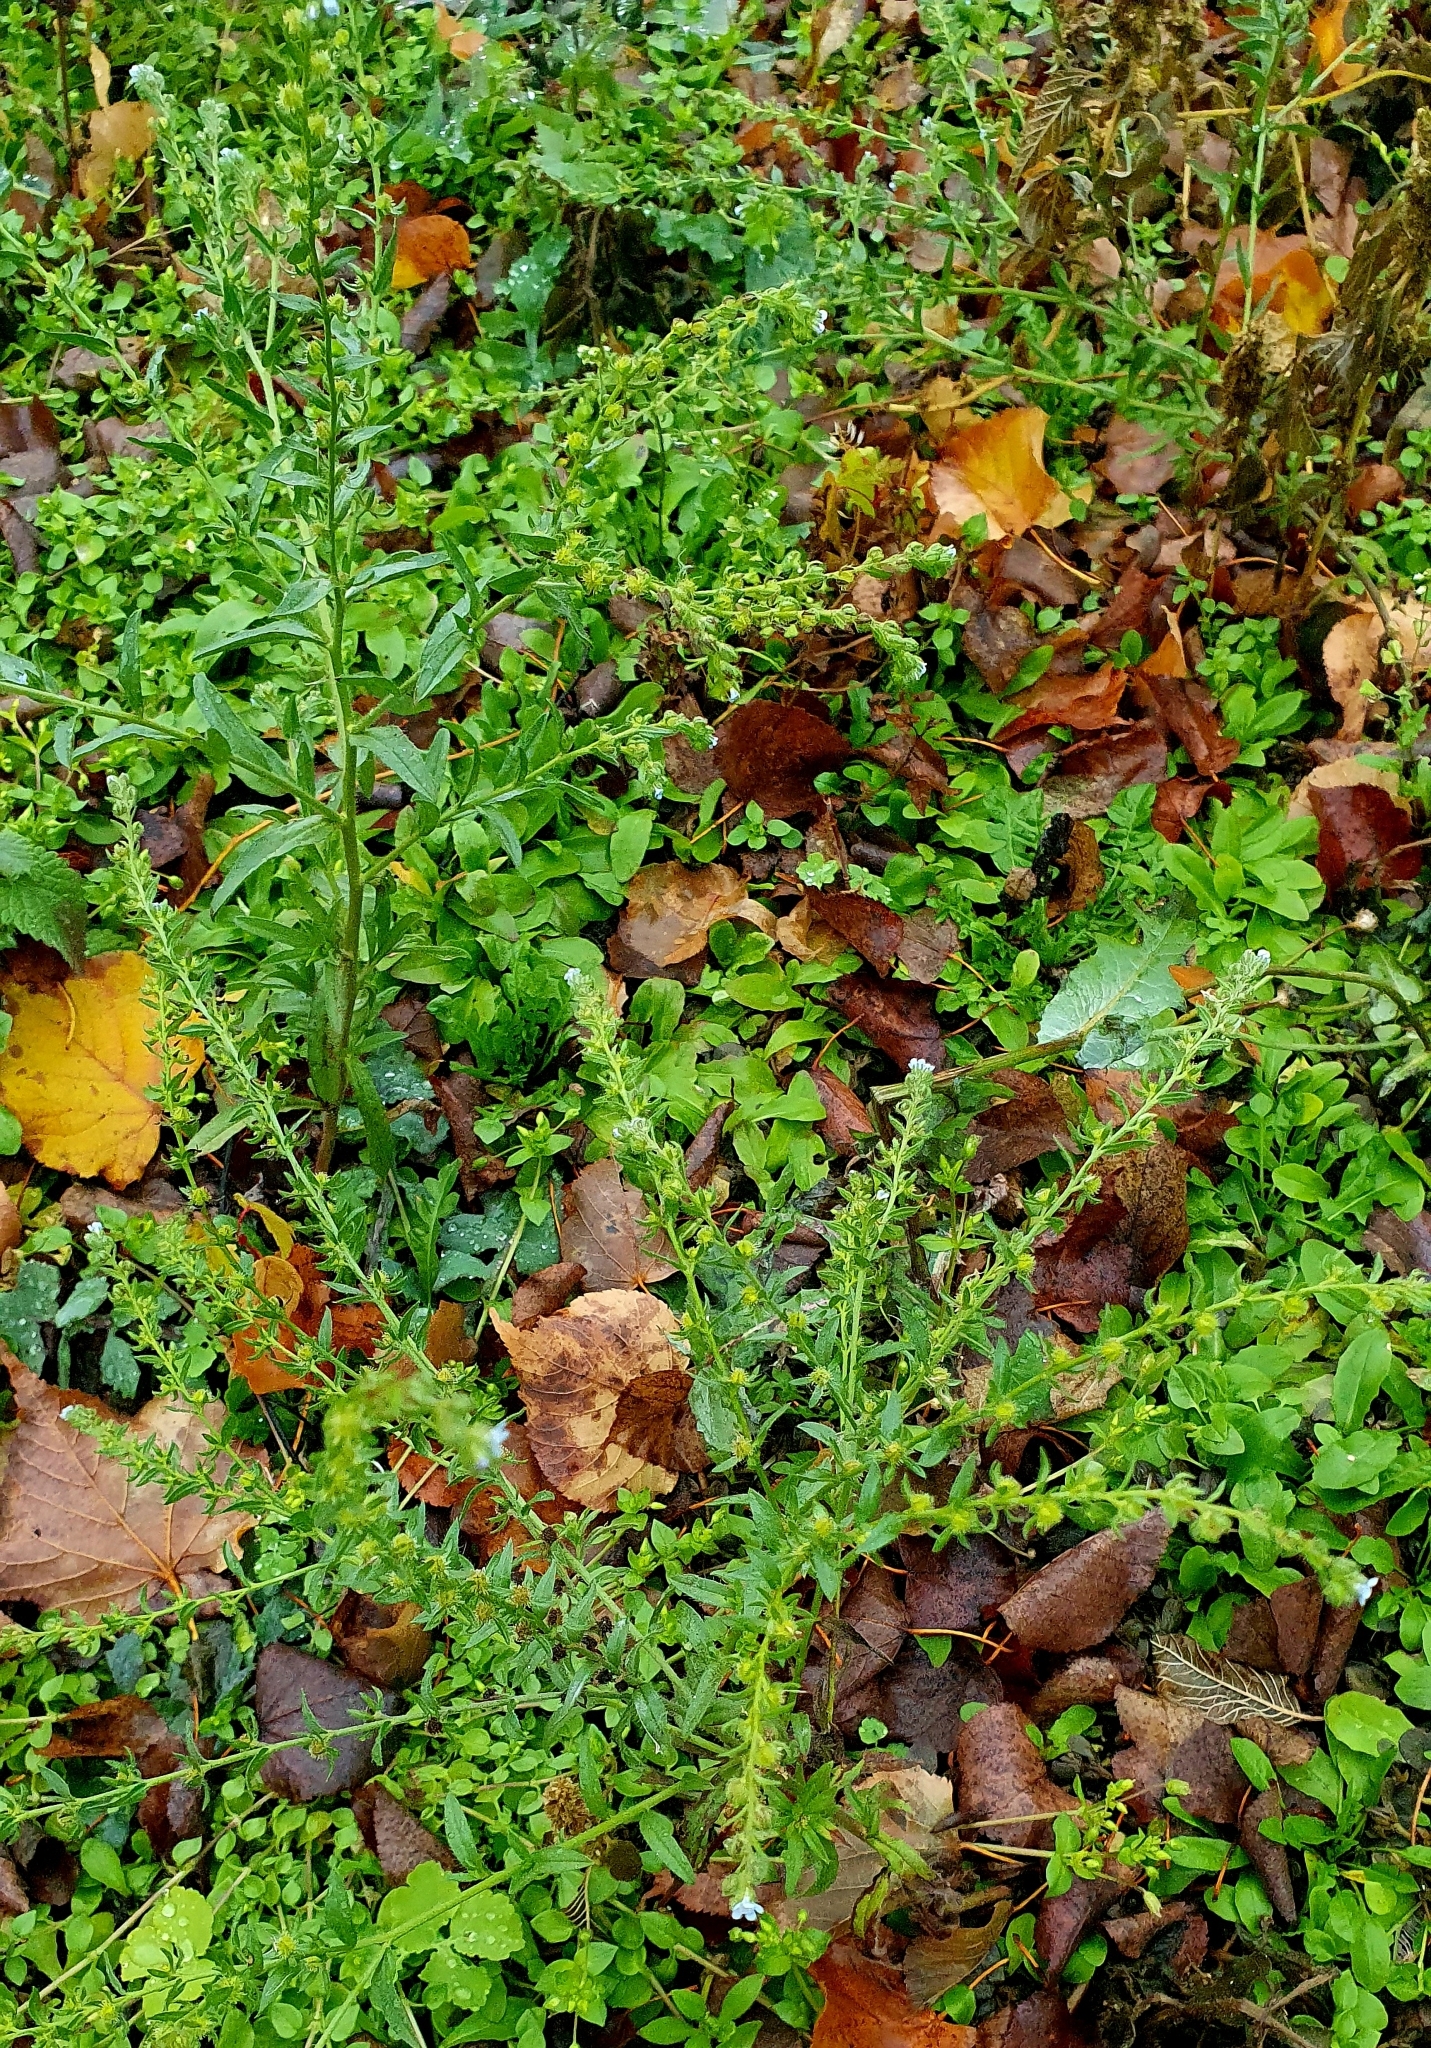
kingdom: Plantae
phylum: Tracheophyta
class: Magnoliopsida
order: Boraginales
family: Boraginaceae
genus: Lappula
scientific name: Lappula squarrosa
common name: European stickseed
